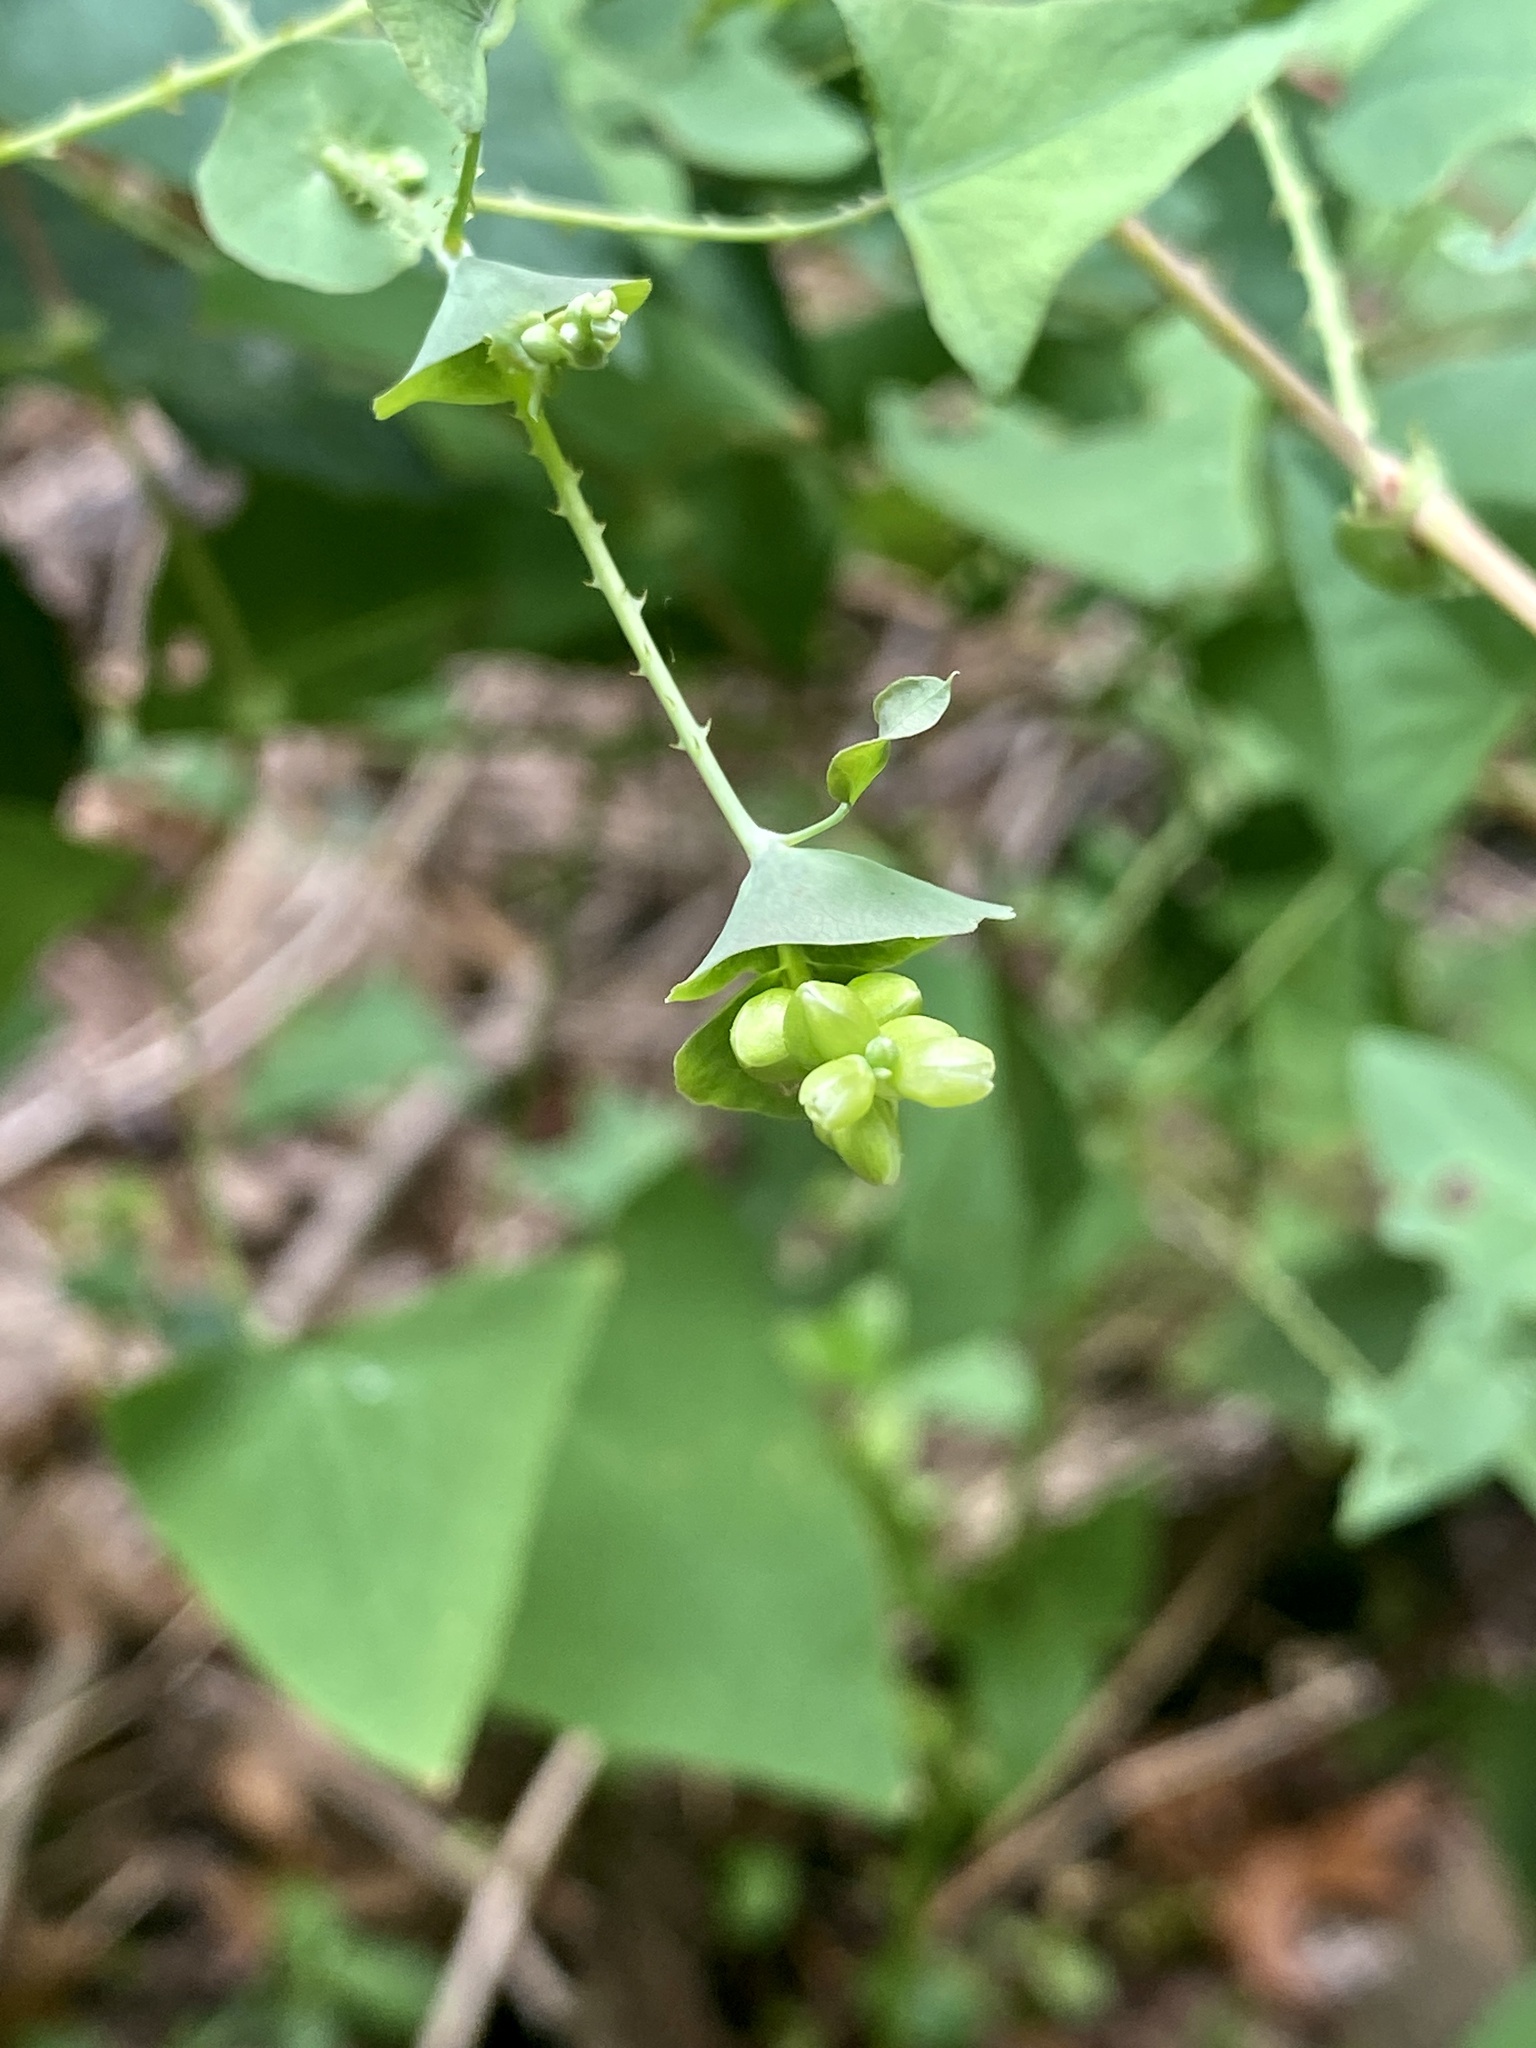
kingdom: Plantae
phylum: Tracheophyta
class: Magnoliopsida
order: Caryophyllales
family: Polygonaceae
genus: Persicaria
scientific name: Persicaria perfoliata
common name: Asiatic tearthumb
